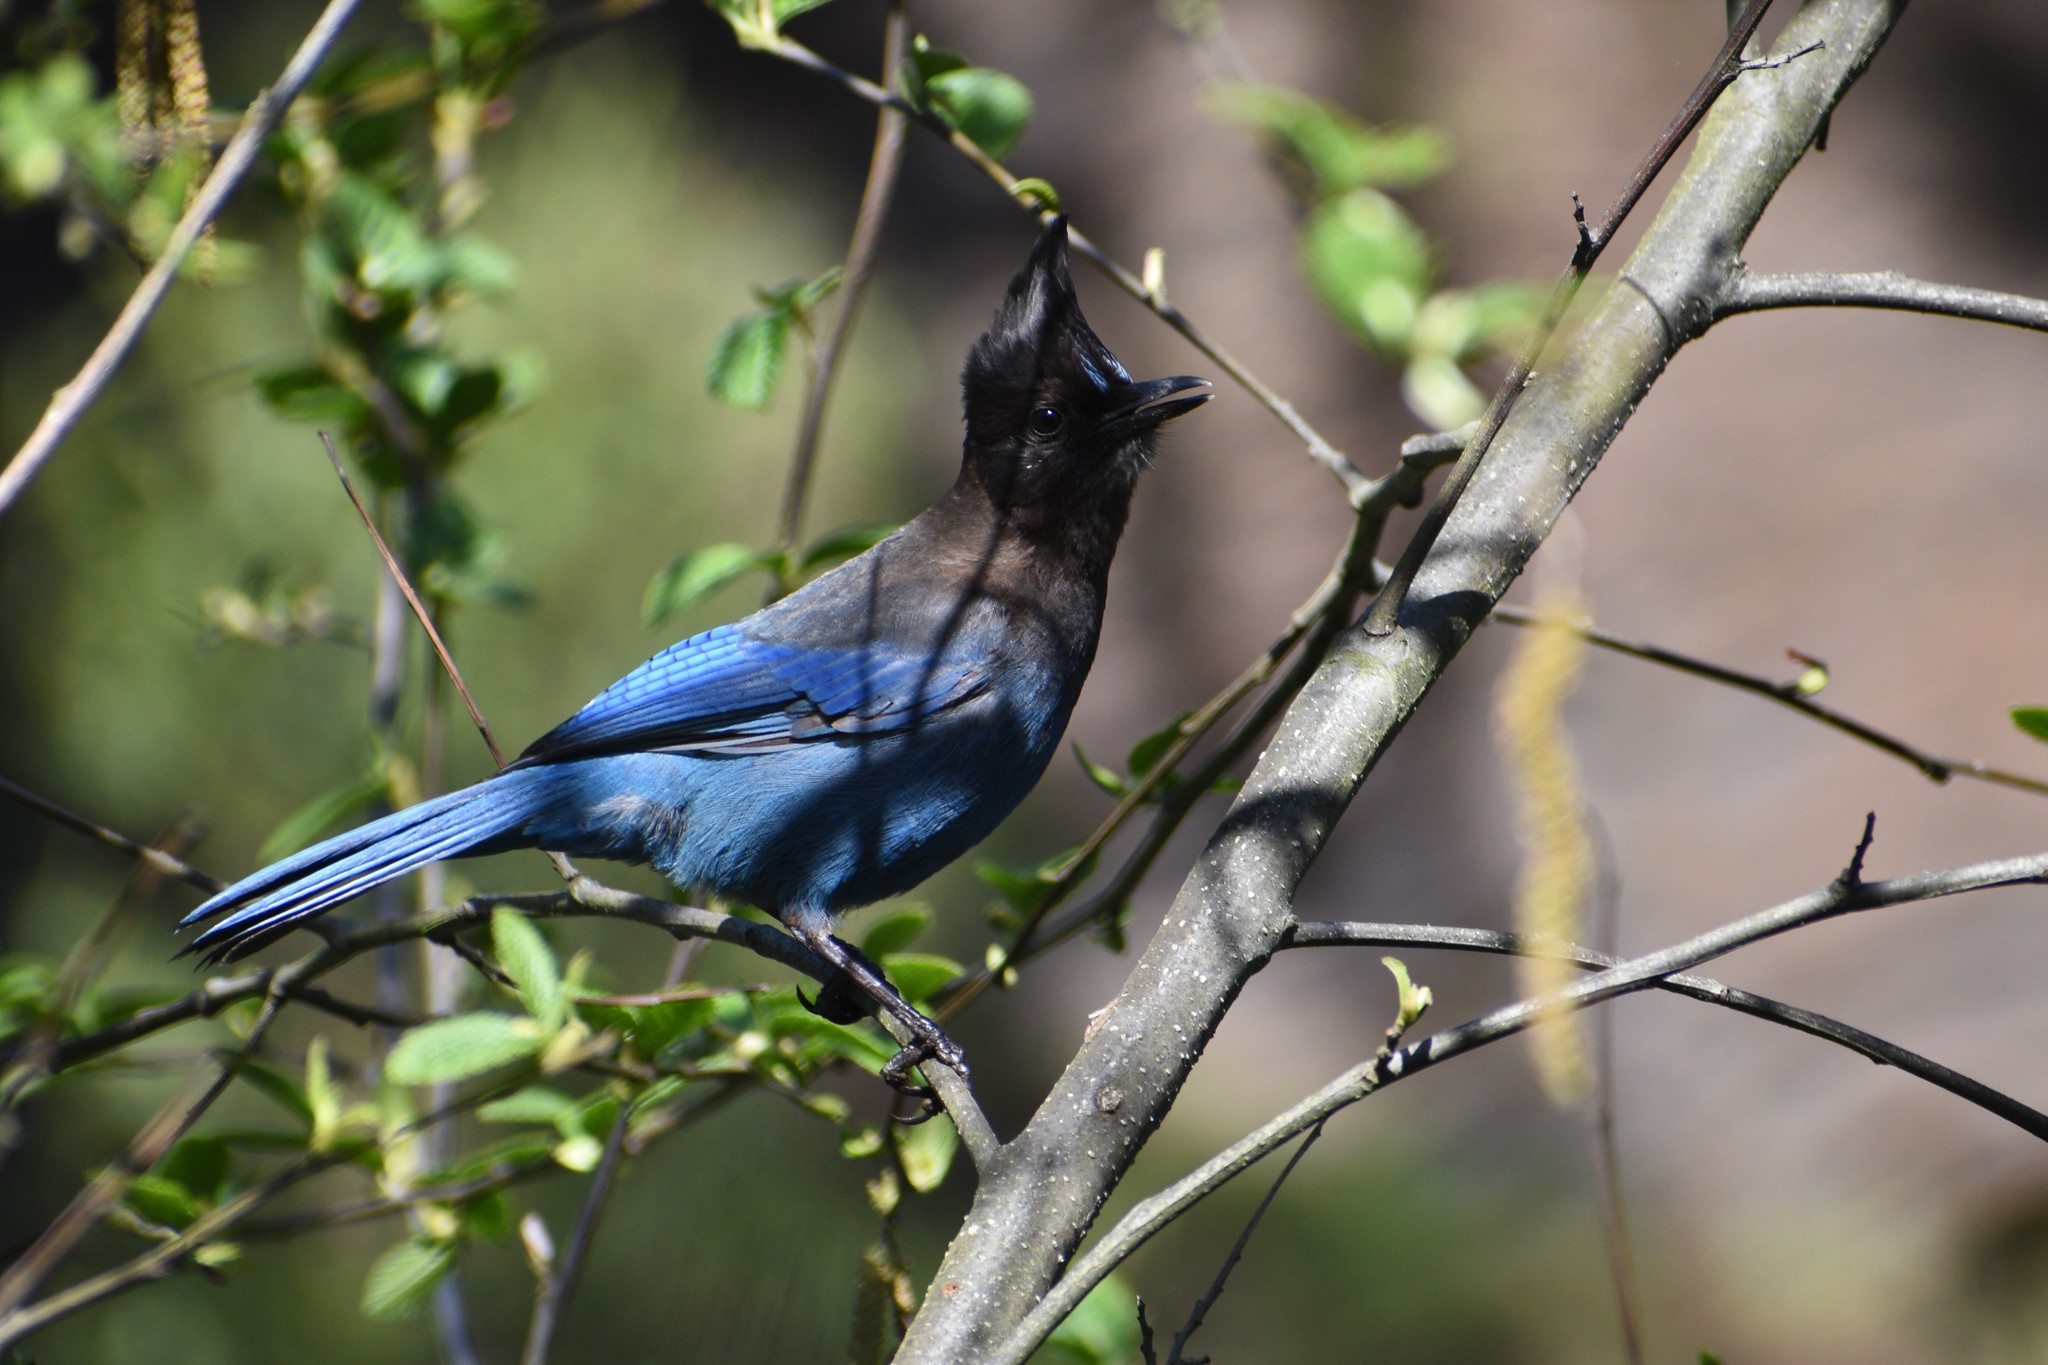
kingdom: Animalia
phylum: Chordata
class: Aves
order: Passeriformes
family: Corvidae
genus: Cyanocitta
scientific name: Cyanocitta stelleri
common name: Steller's jay
